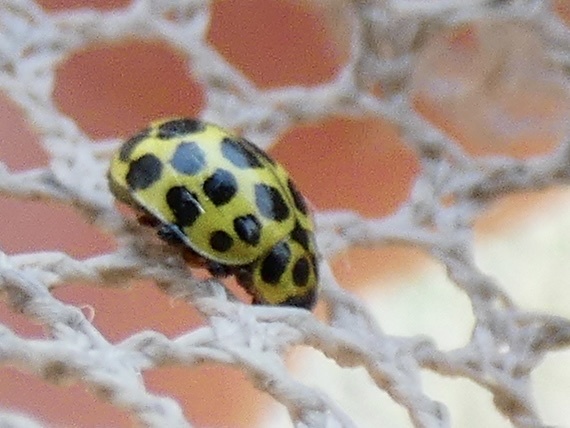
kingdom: Animalia
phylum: Arthropoda
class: Insecta
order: Coleoptera
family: Coccinellidae
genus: Psyllobora
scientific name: Psyllobora vigintiduopunctata
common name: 22-spot ladybird
